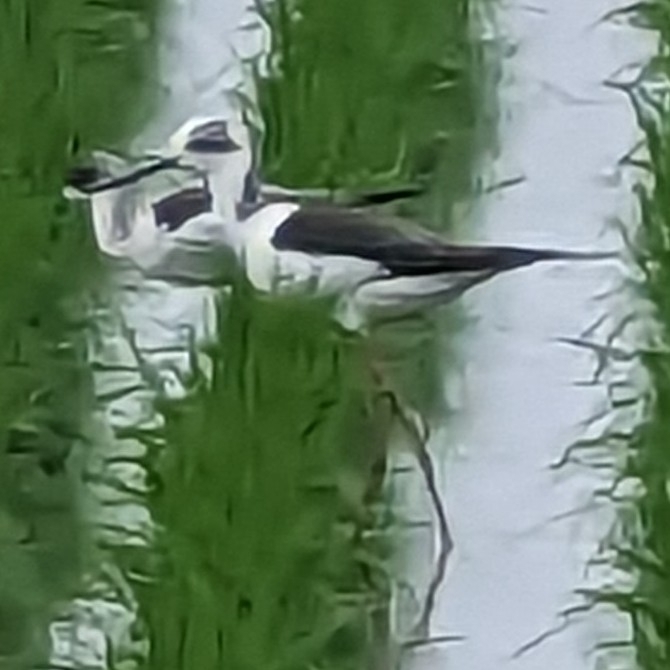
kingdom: Animalia
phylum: Chordata
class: Aves
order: Charadriiformes
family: Recurvirostridae
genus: Himantopus
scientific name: Himantopus himantopus
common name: Black-winged stilt
